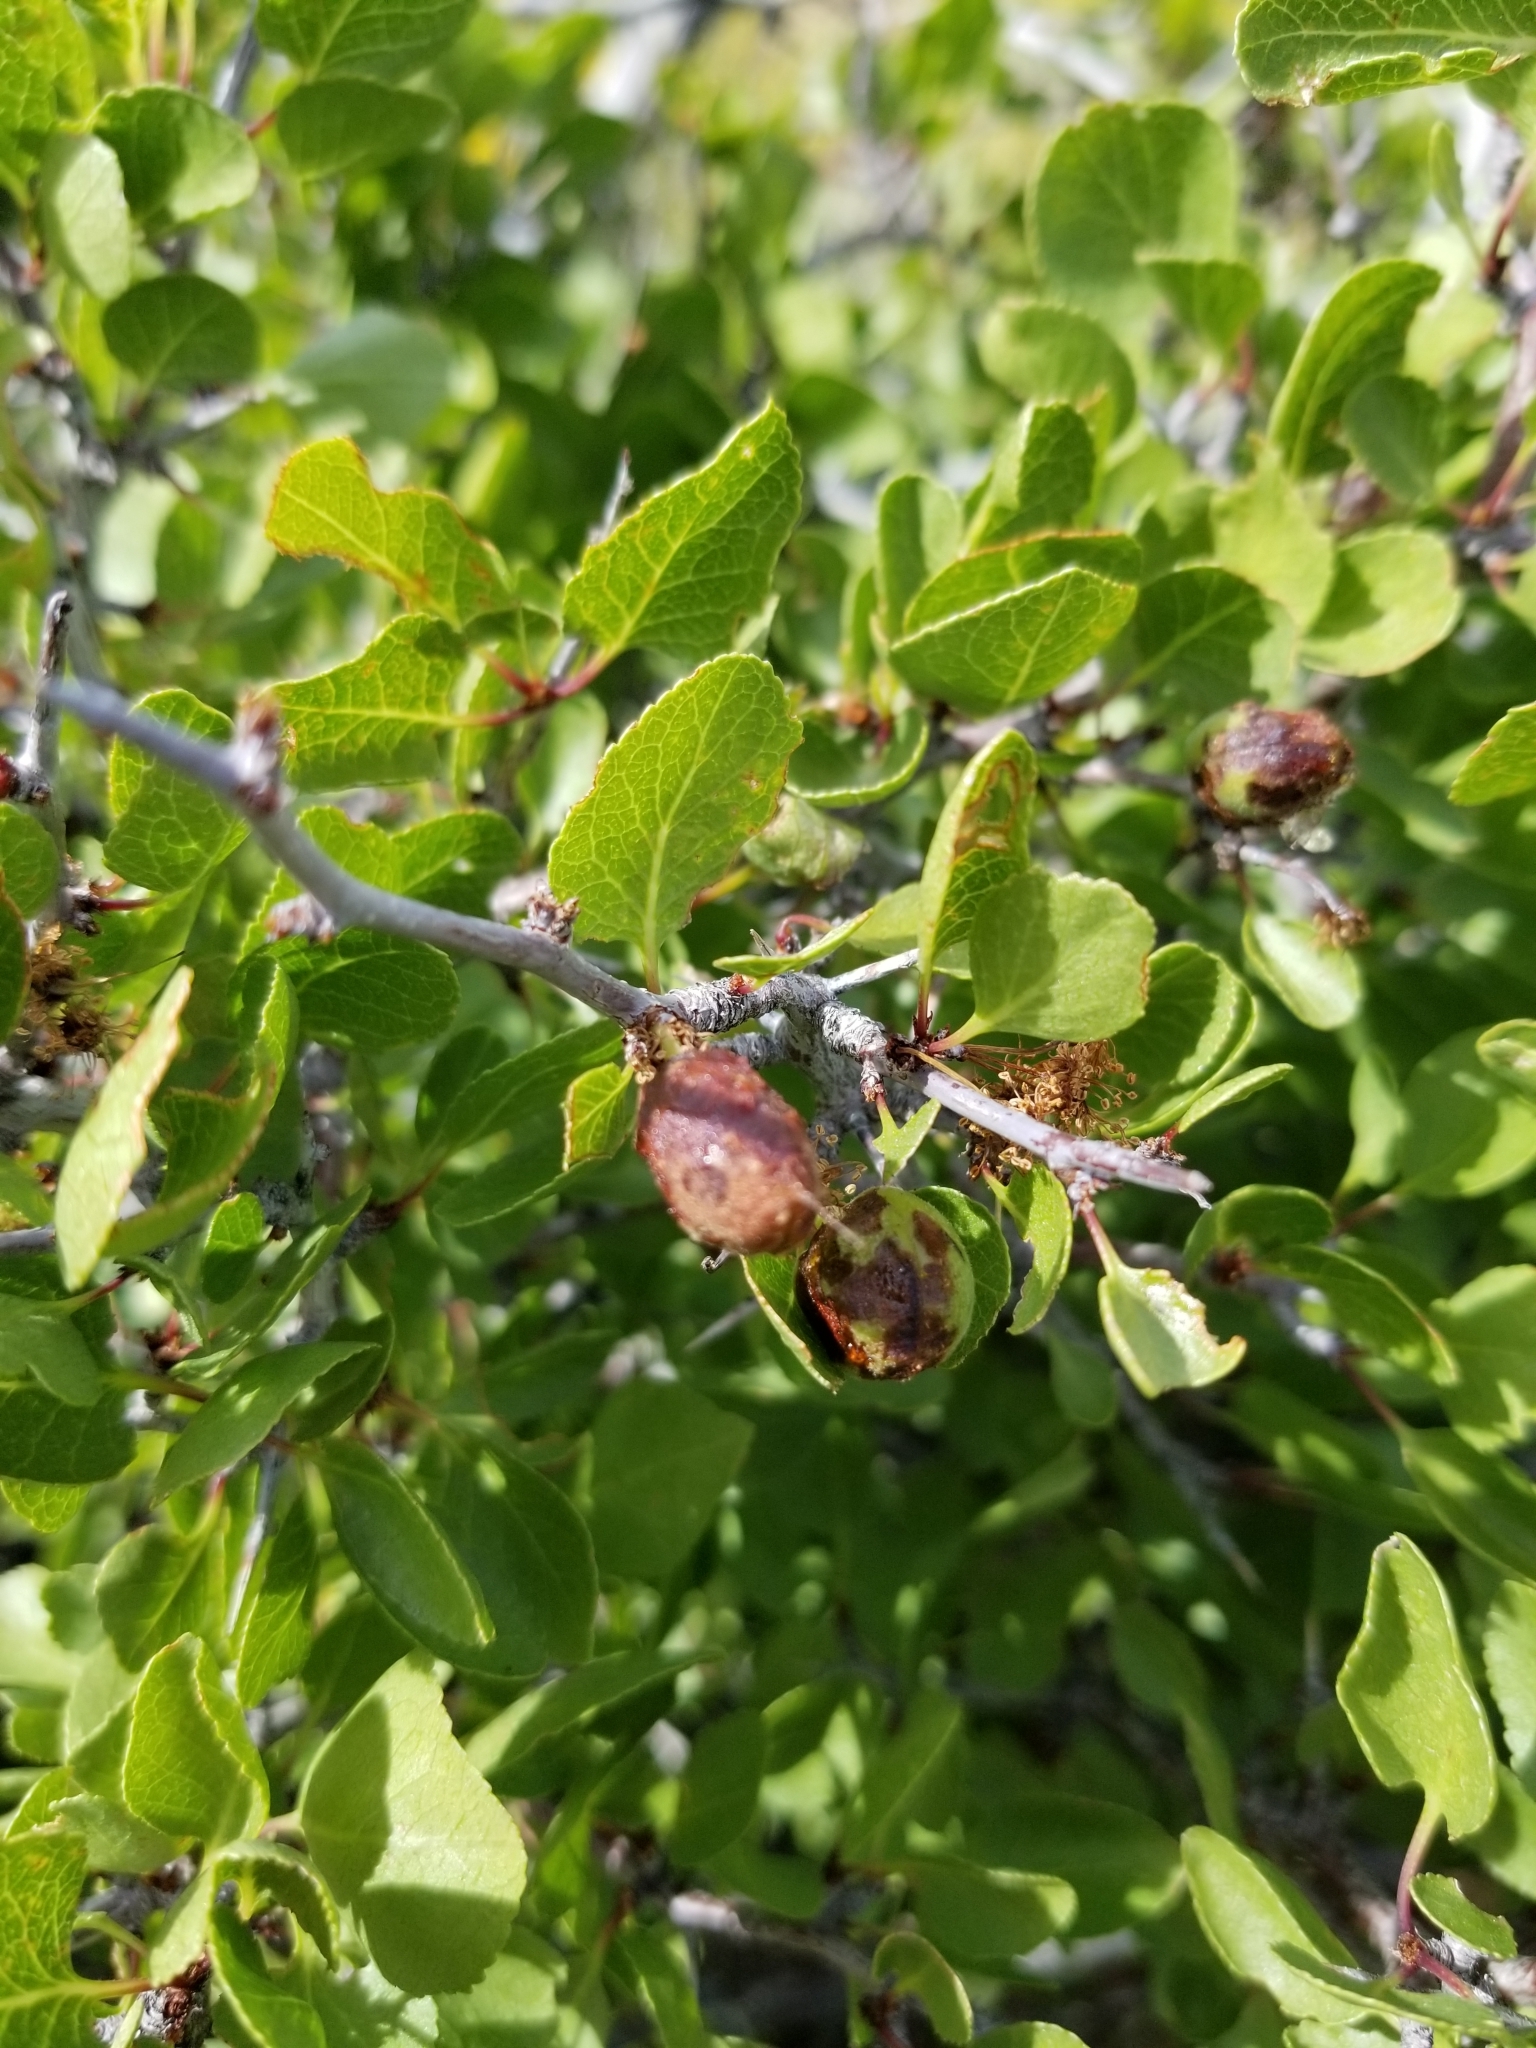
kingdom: Plantae
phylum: Tracheophyta
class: Magnoliopsida
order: Rosales
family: Rosaceae
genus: Prunus
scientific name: Prunus fremontii
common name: Desert apricot
